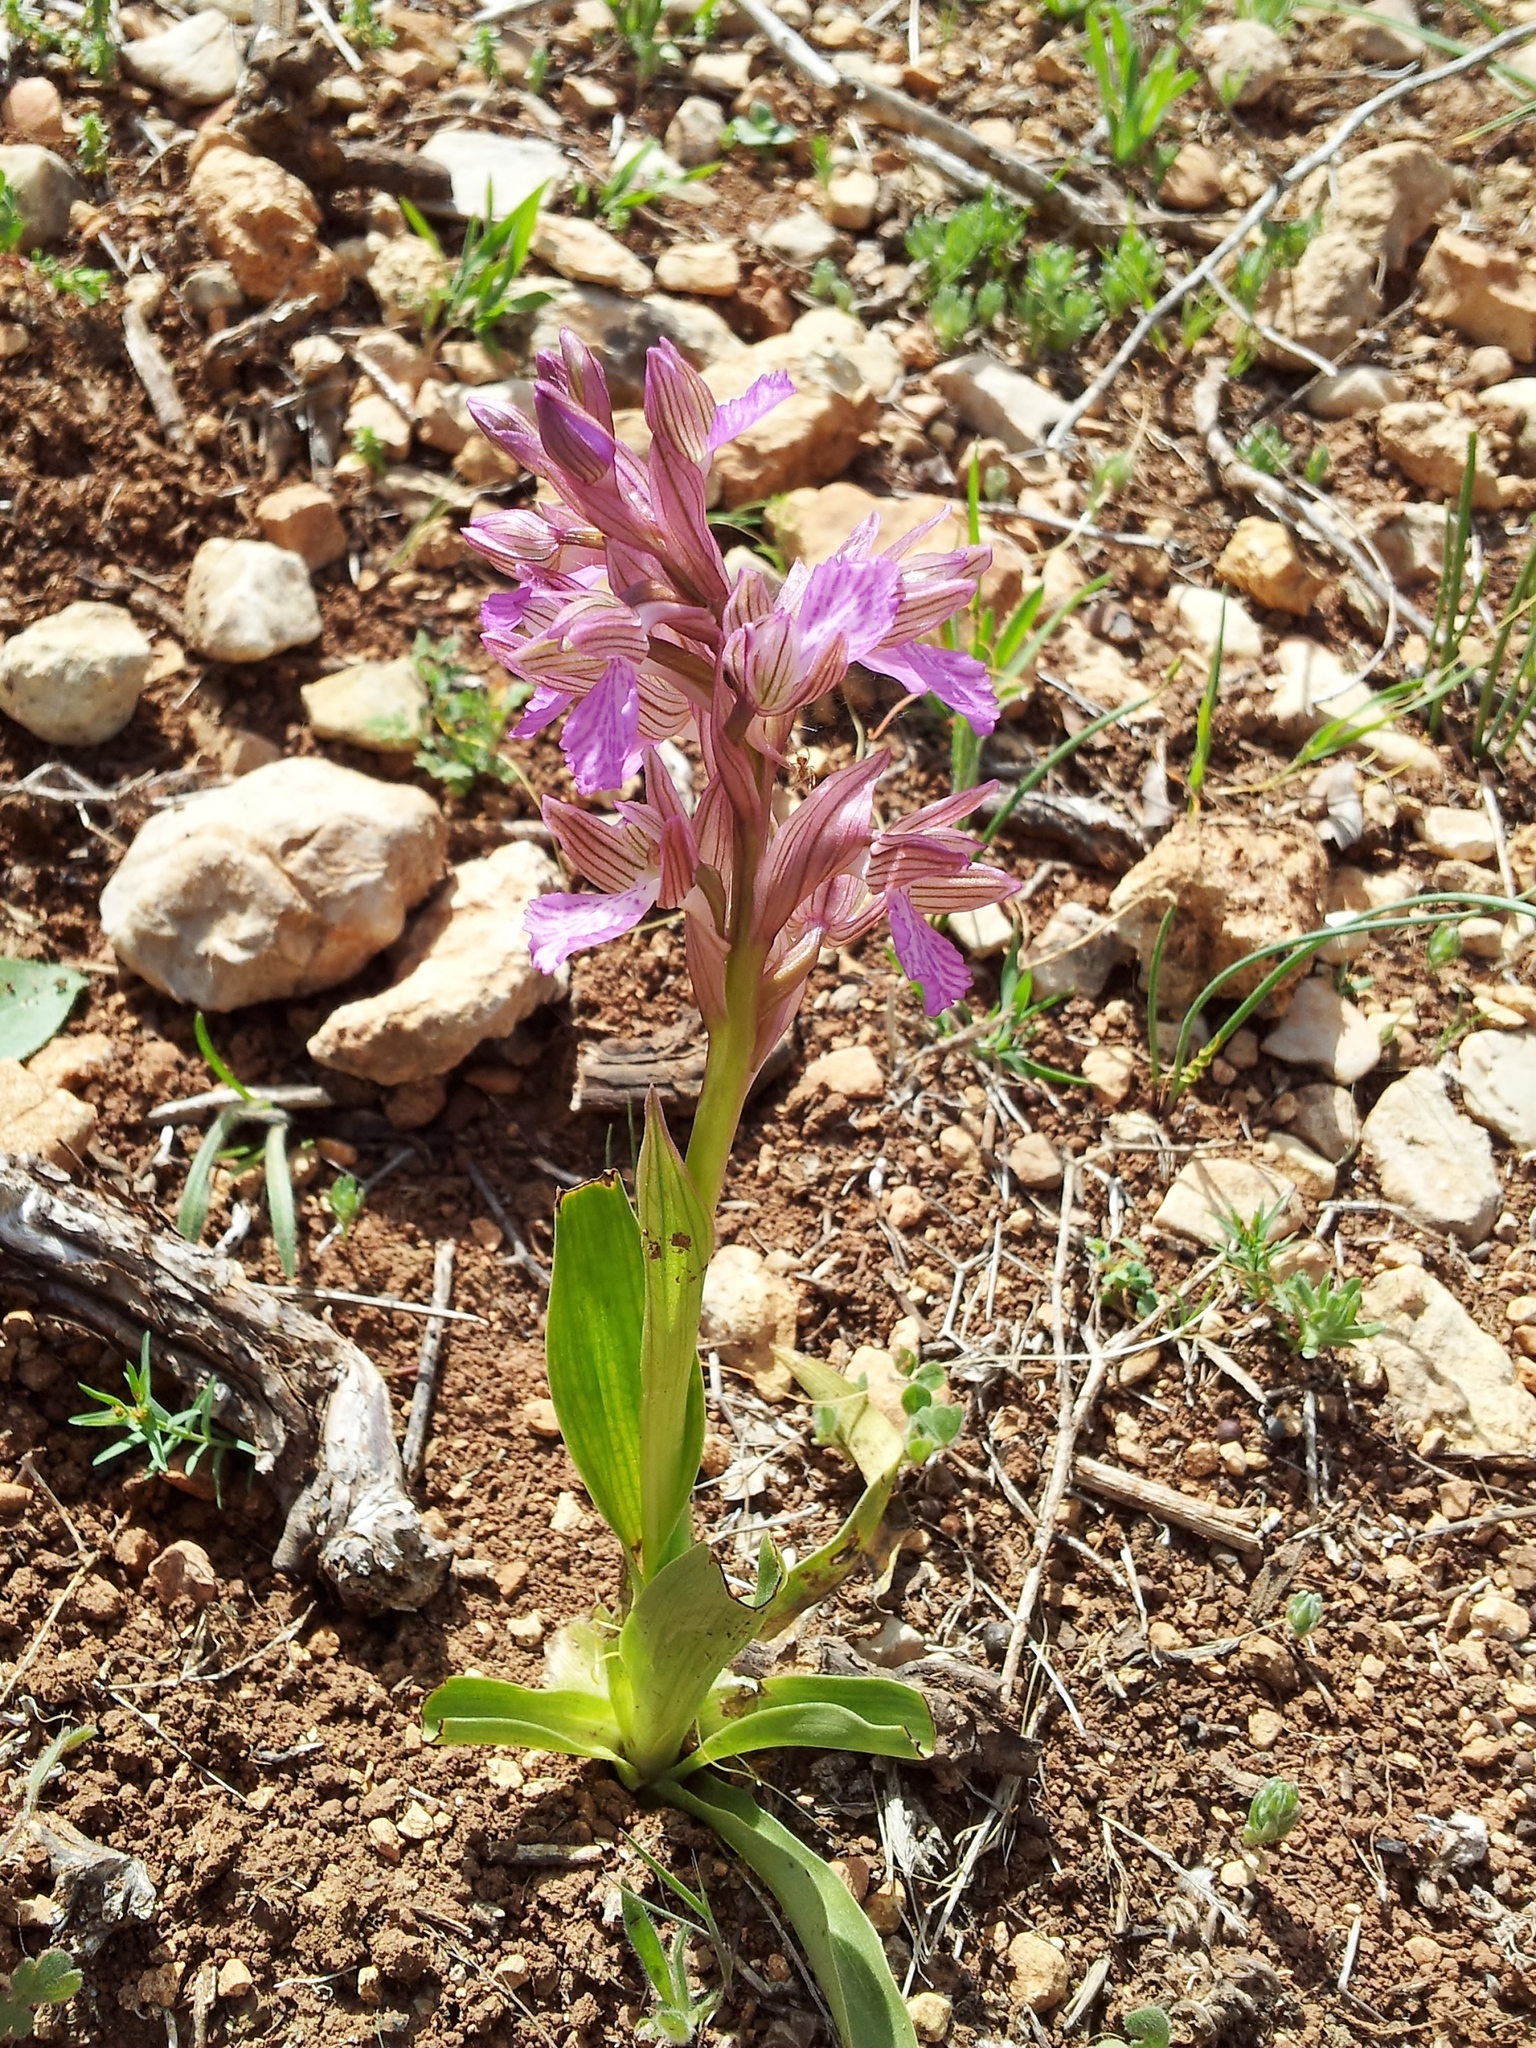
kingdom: Plantae
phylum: Tracheophyta
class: Liliopsida
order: Asparagales
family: Orchidaceae
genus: Anacamptis
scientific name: Anacamptis papilionacea
